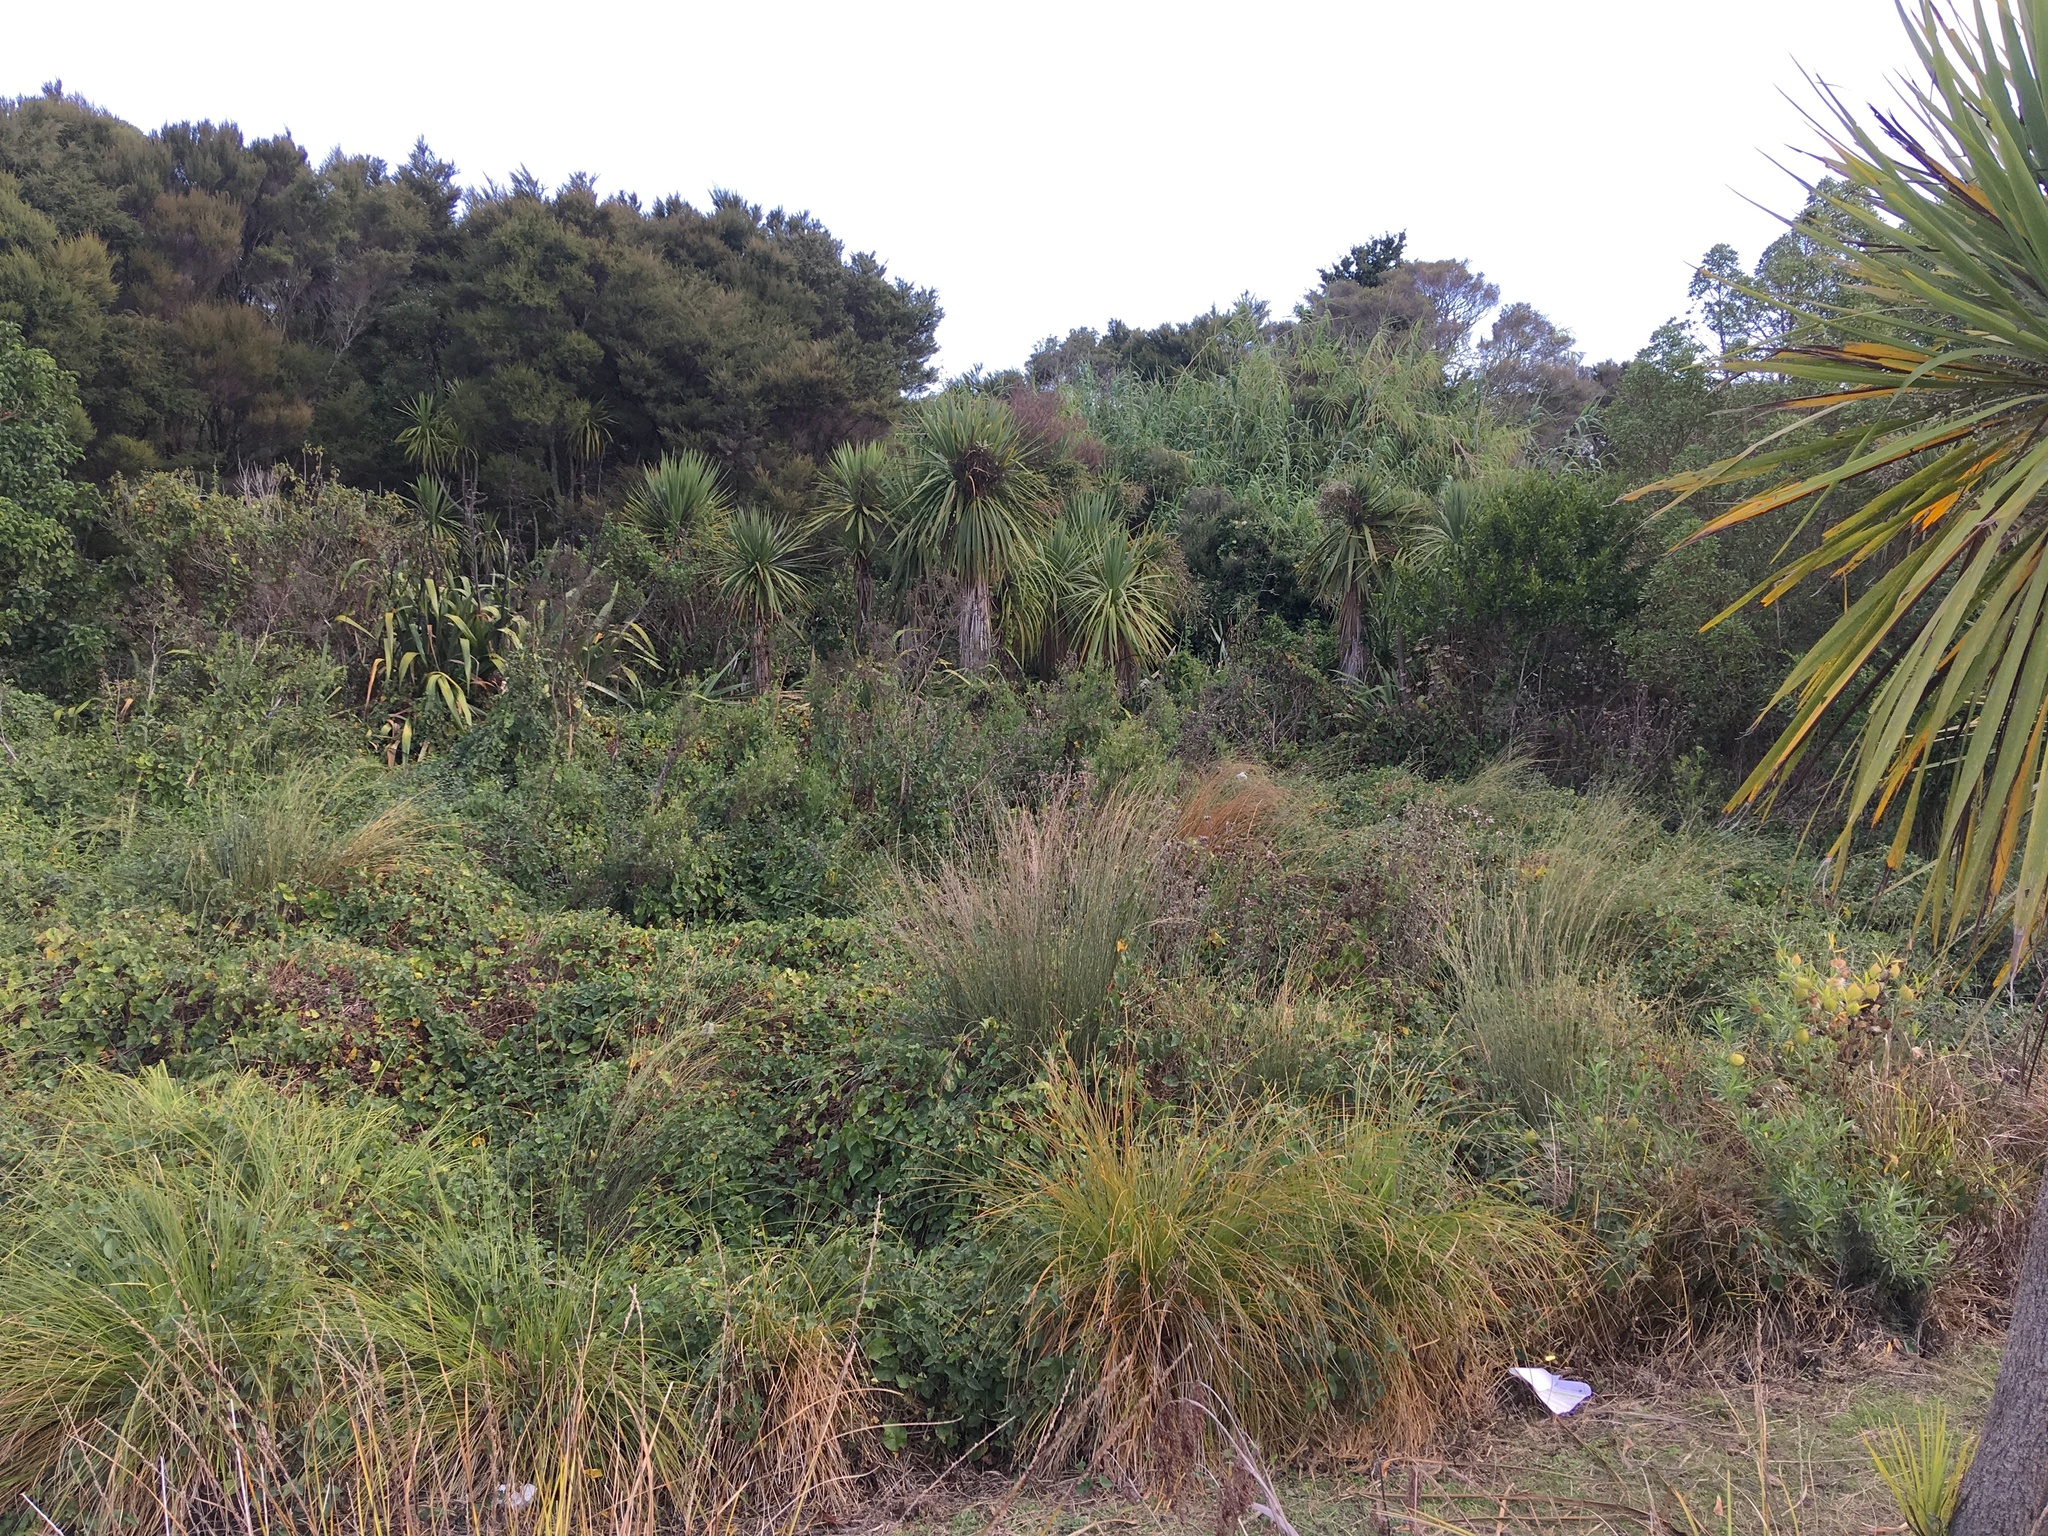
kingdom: Plantae
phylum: Tracheophyta
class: Liliopsida
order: Asparagales
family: Asparagaceae
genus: Cordyline
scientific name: Cordyline australis
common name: Cabbage-palm
